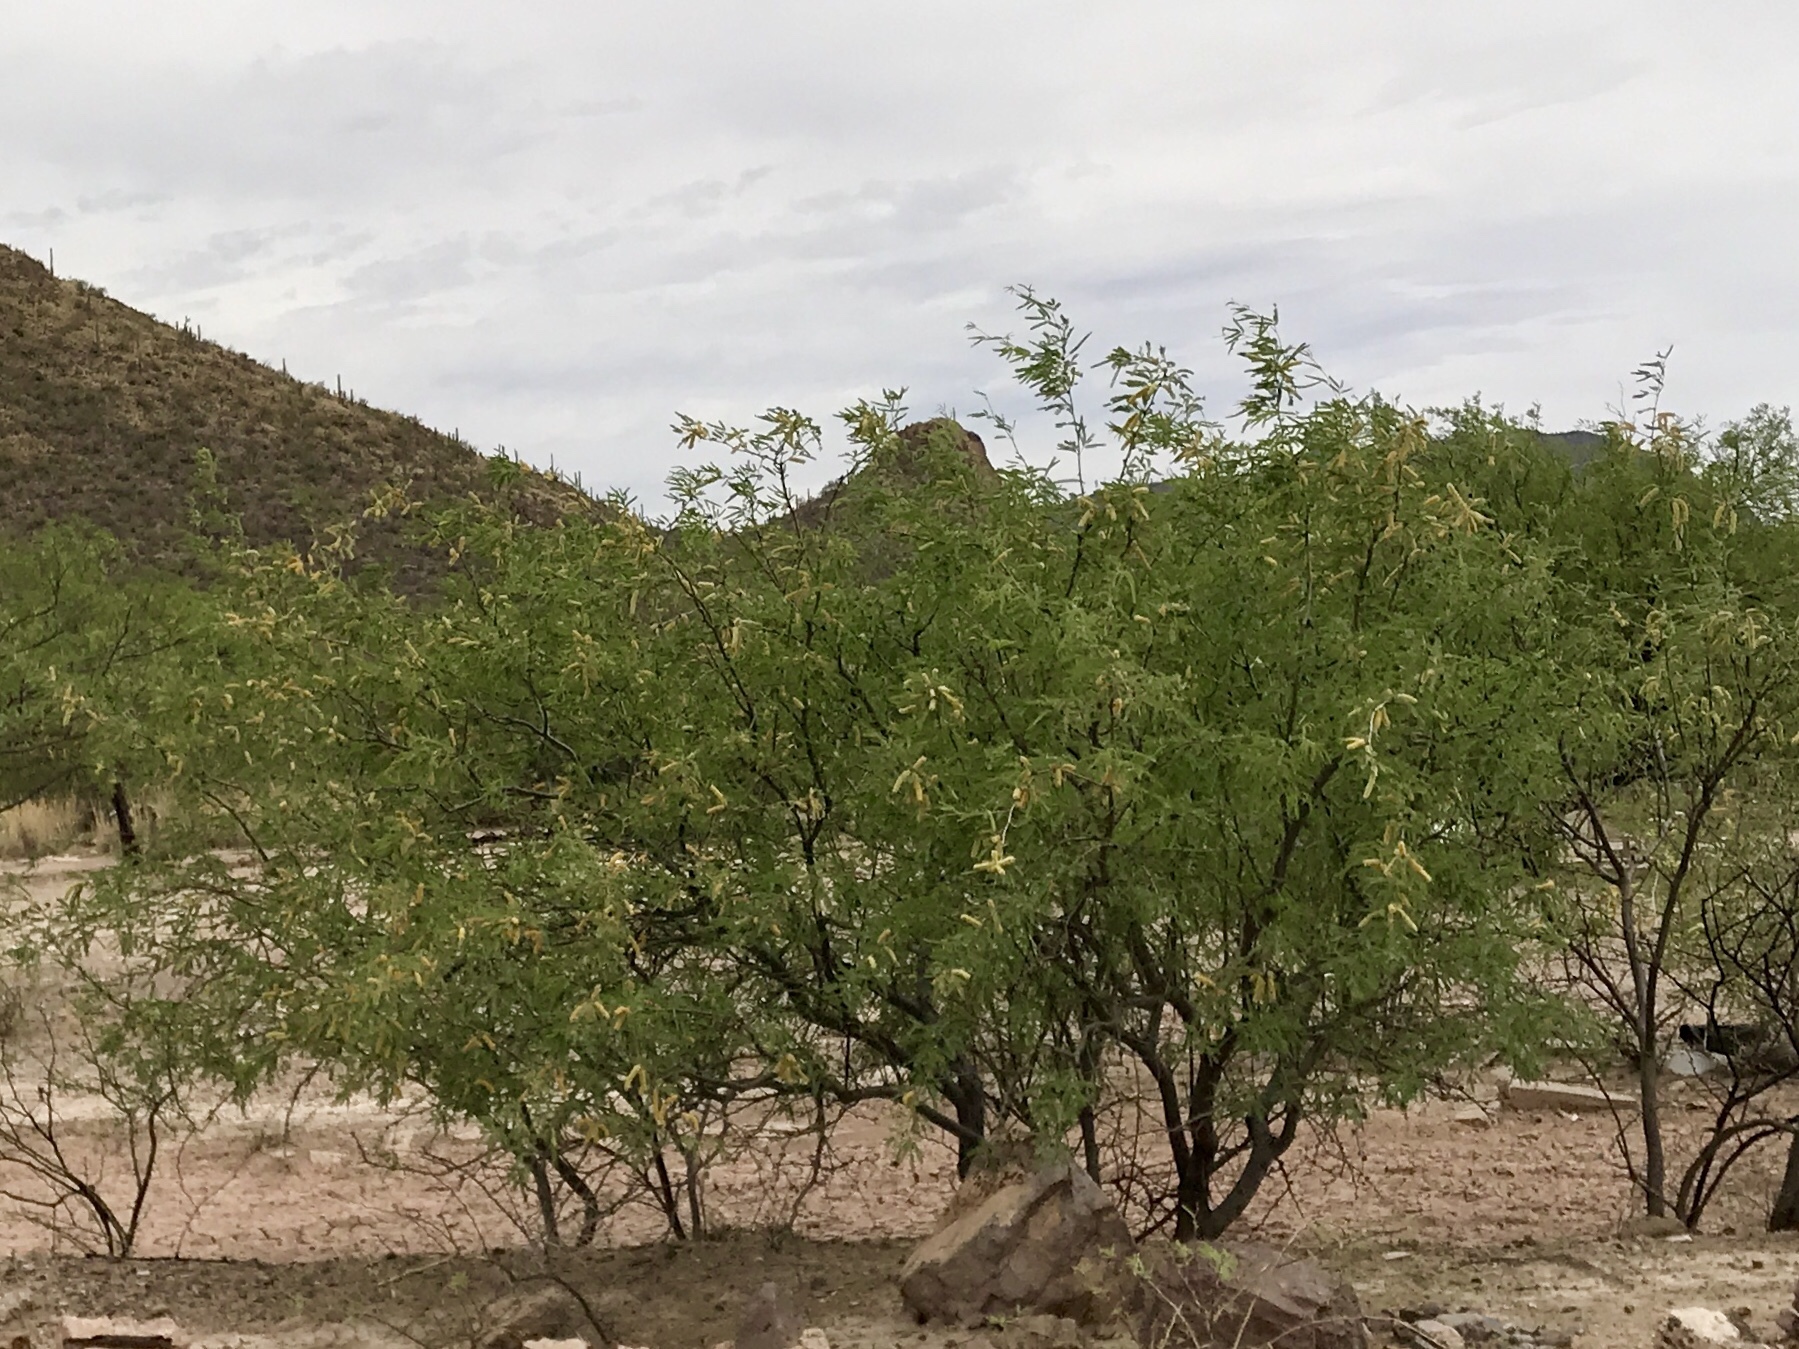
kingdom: Plantae
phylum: Tracheophyta
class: Magnoliopsida
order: Fabales
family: Fabaceae
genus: Prosopis
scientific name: Prosopis velutina
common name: Velvet mesquite
